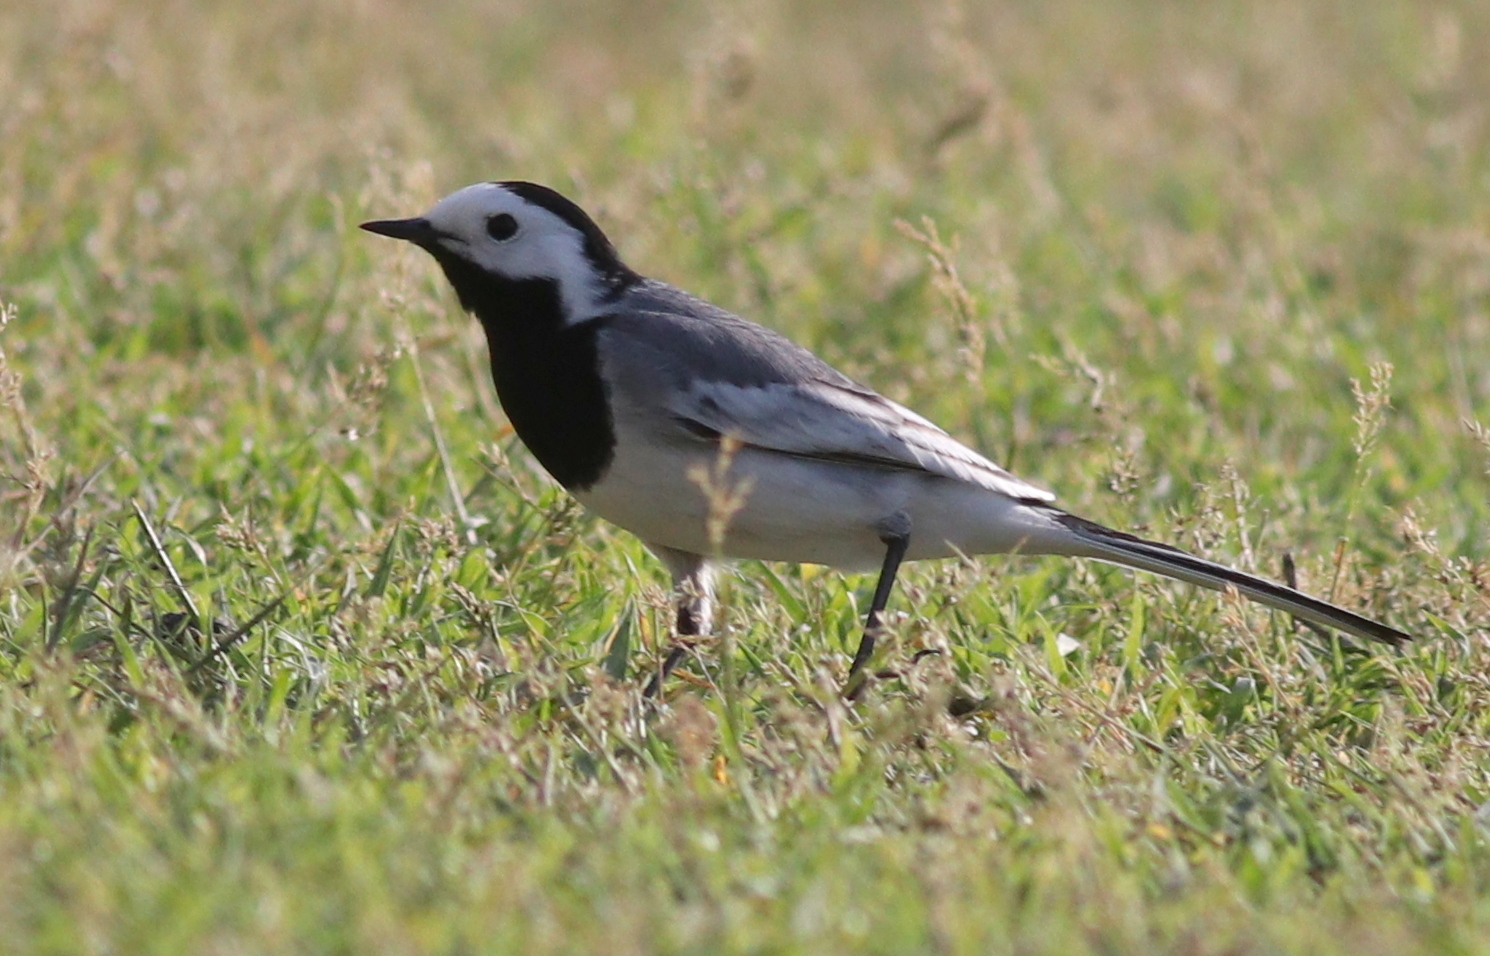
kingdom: Animalia
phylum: Chordata
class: Aves
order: Passeriformes
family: Motacillidae
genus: Motacilla
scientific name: Motacilla alba
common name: White wagtail
